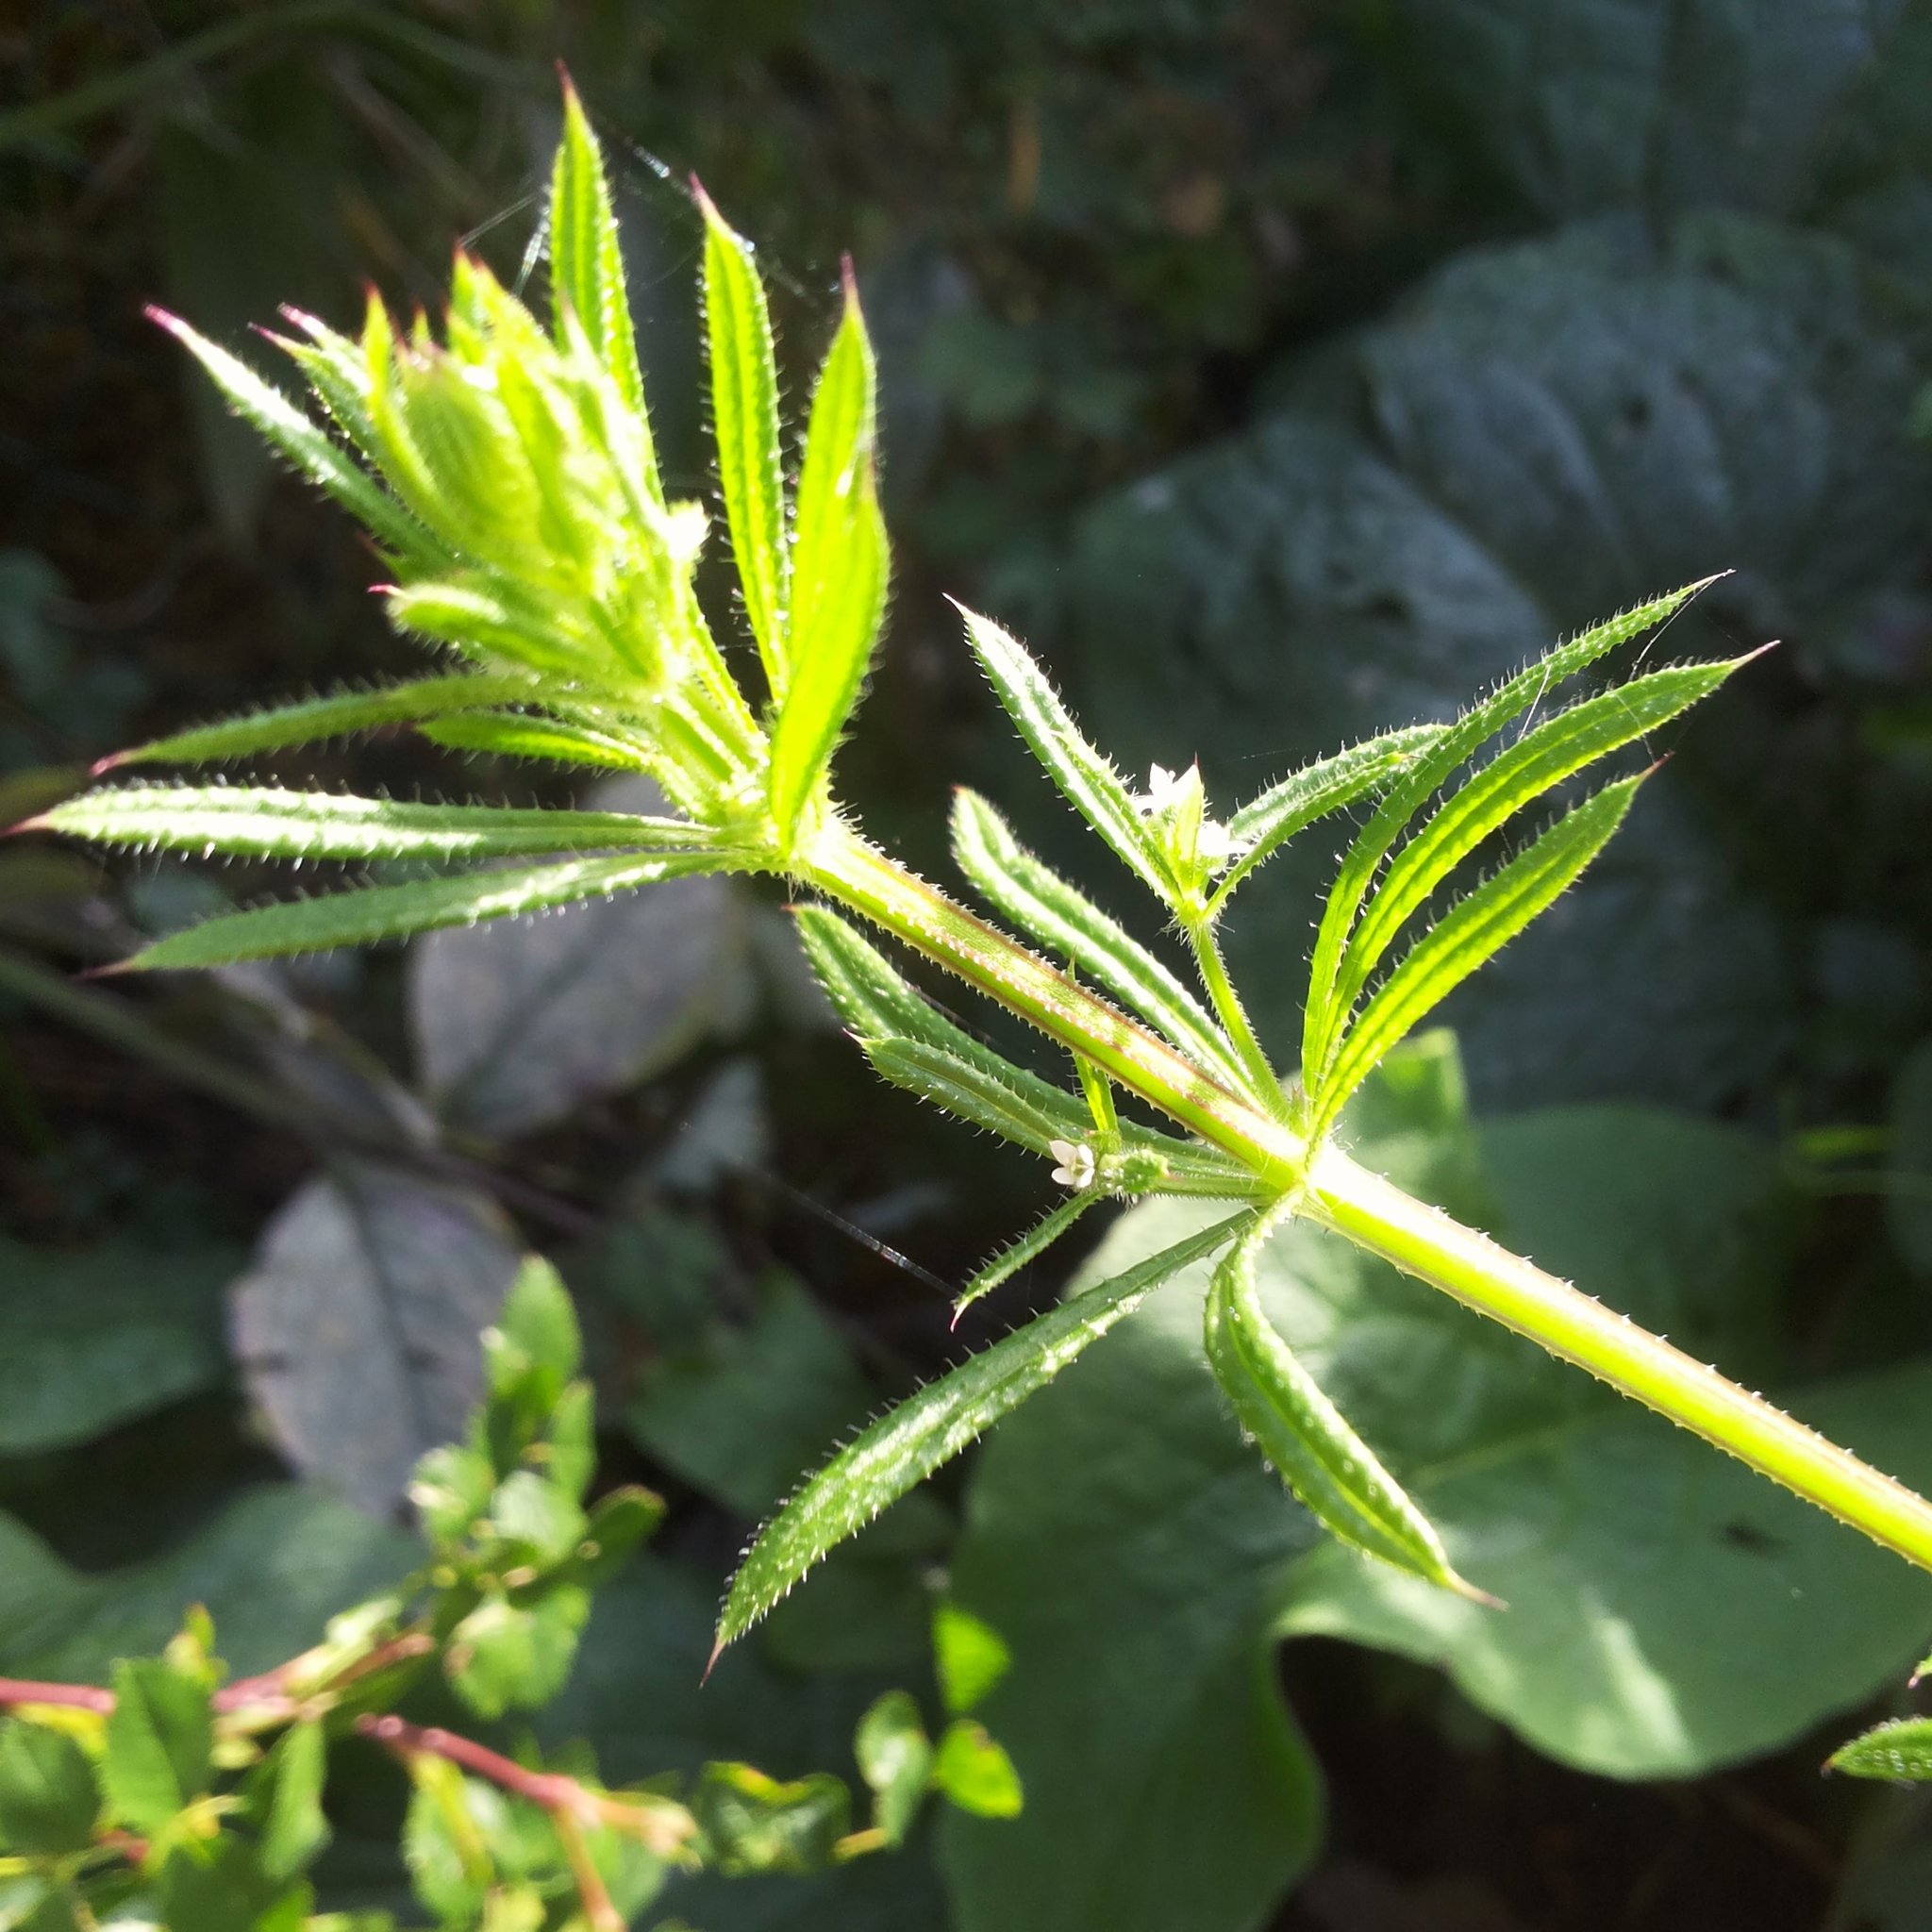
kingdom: Plantae
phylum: Tracheophyta
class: Magnoliopsida
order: Gentianales
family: Rubiaceae
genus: Galium
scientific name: Galium aparine
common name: Cleavers
